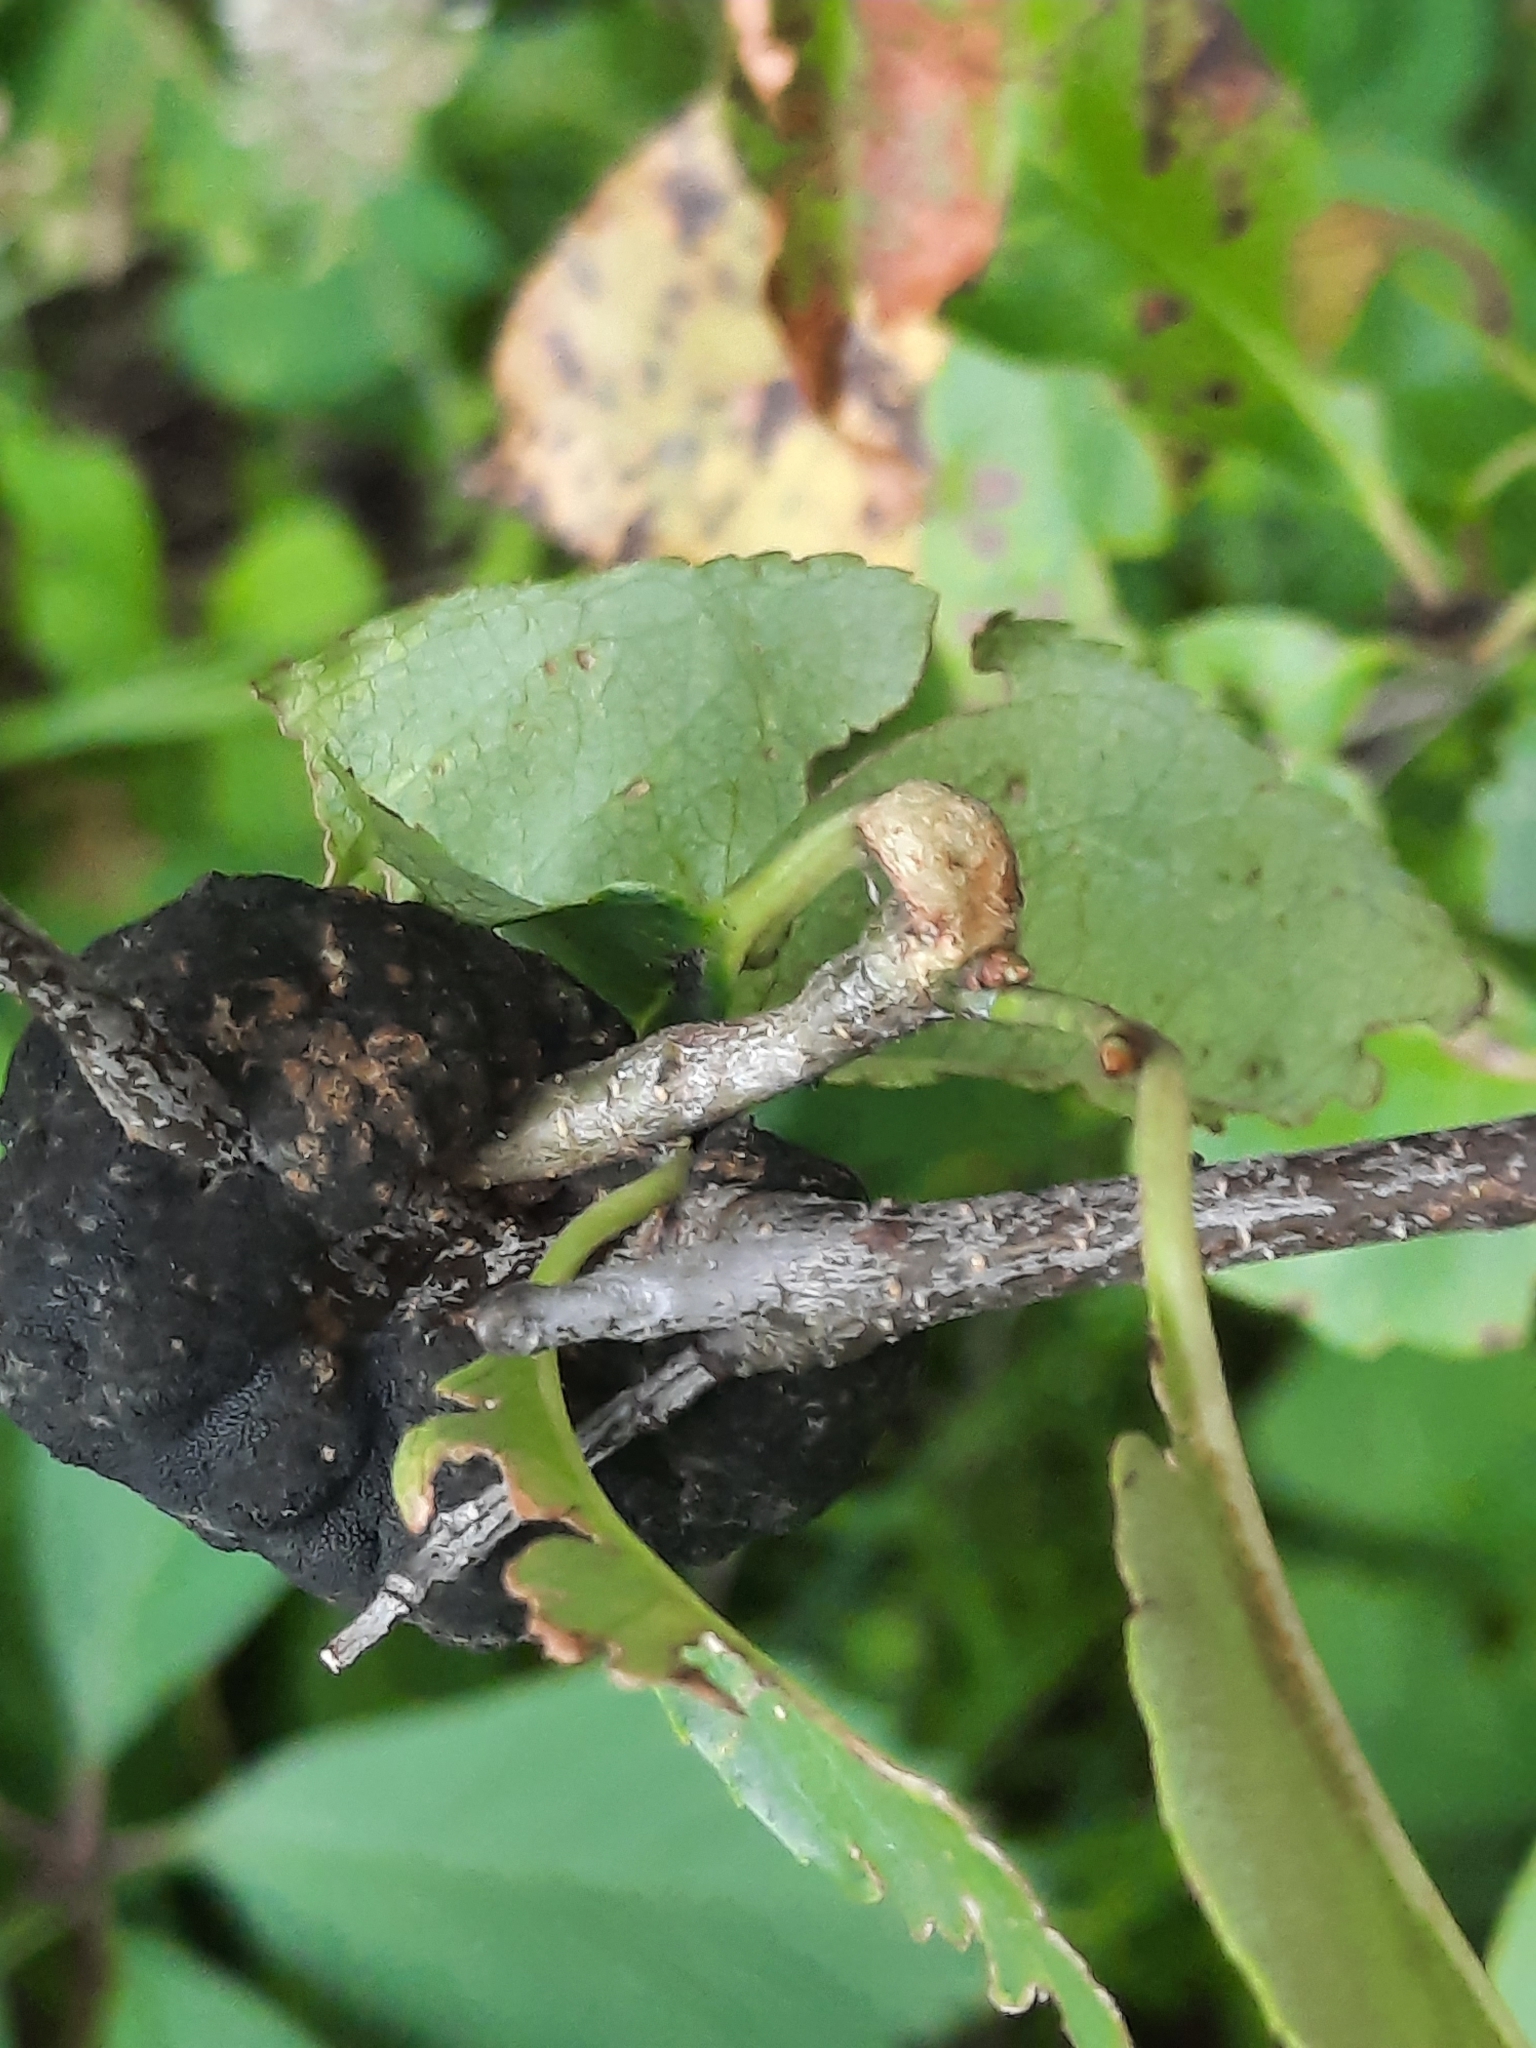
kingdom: Fungi
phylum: Ascomycota
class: Dothideomycetes
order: Venturiales
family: Venturiaceae
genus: Apiosporina
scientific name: Apiosporina morbosa
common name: Black knot
